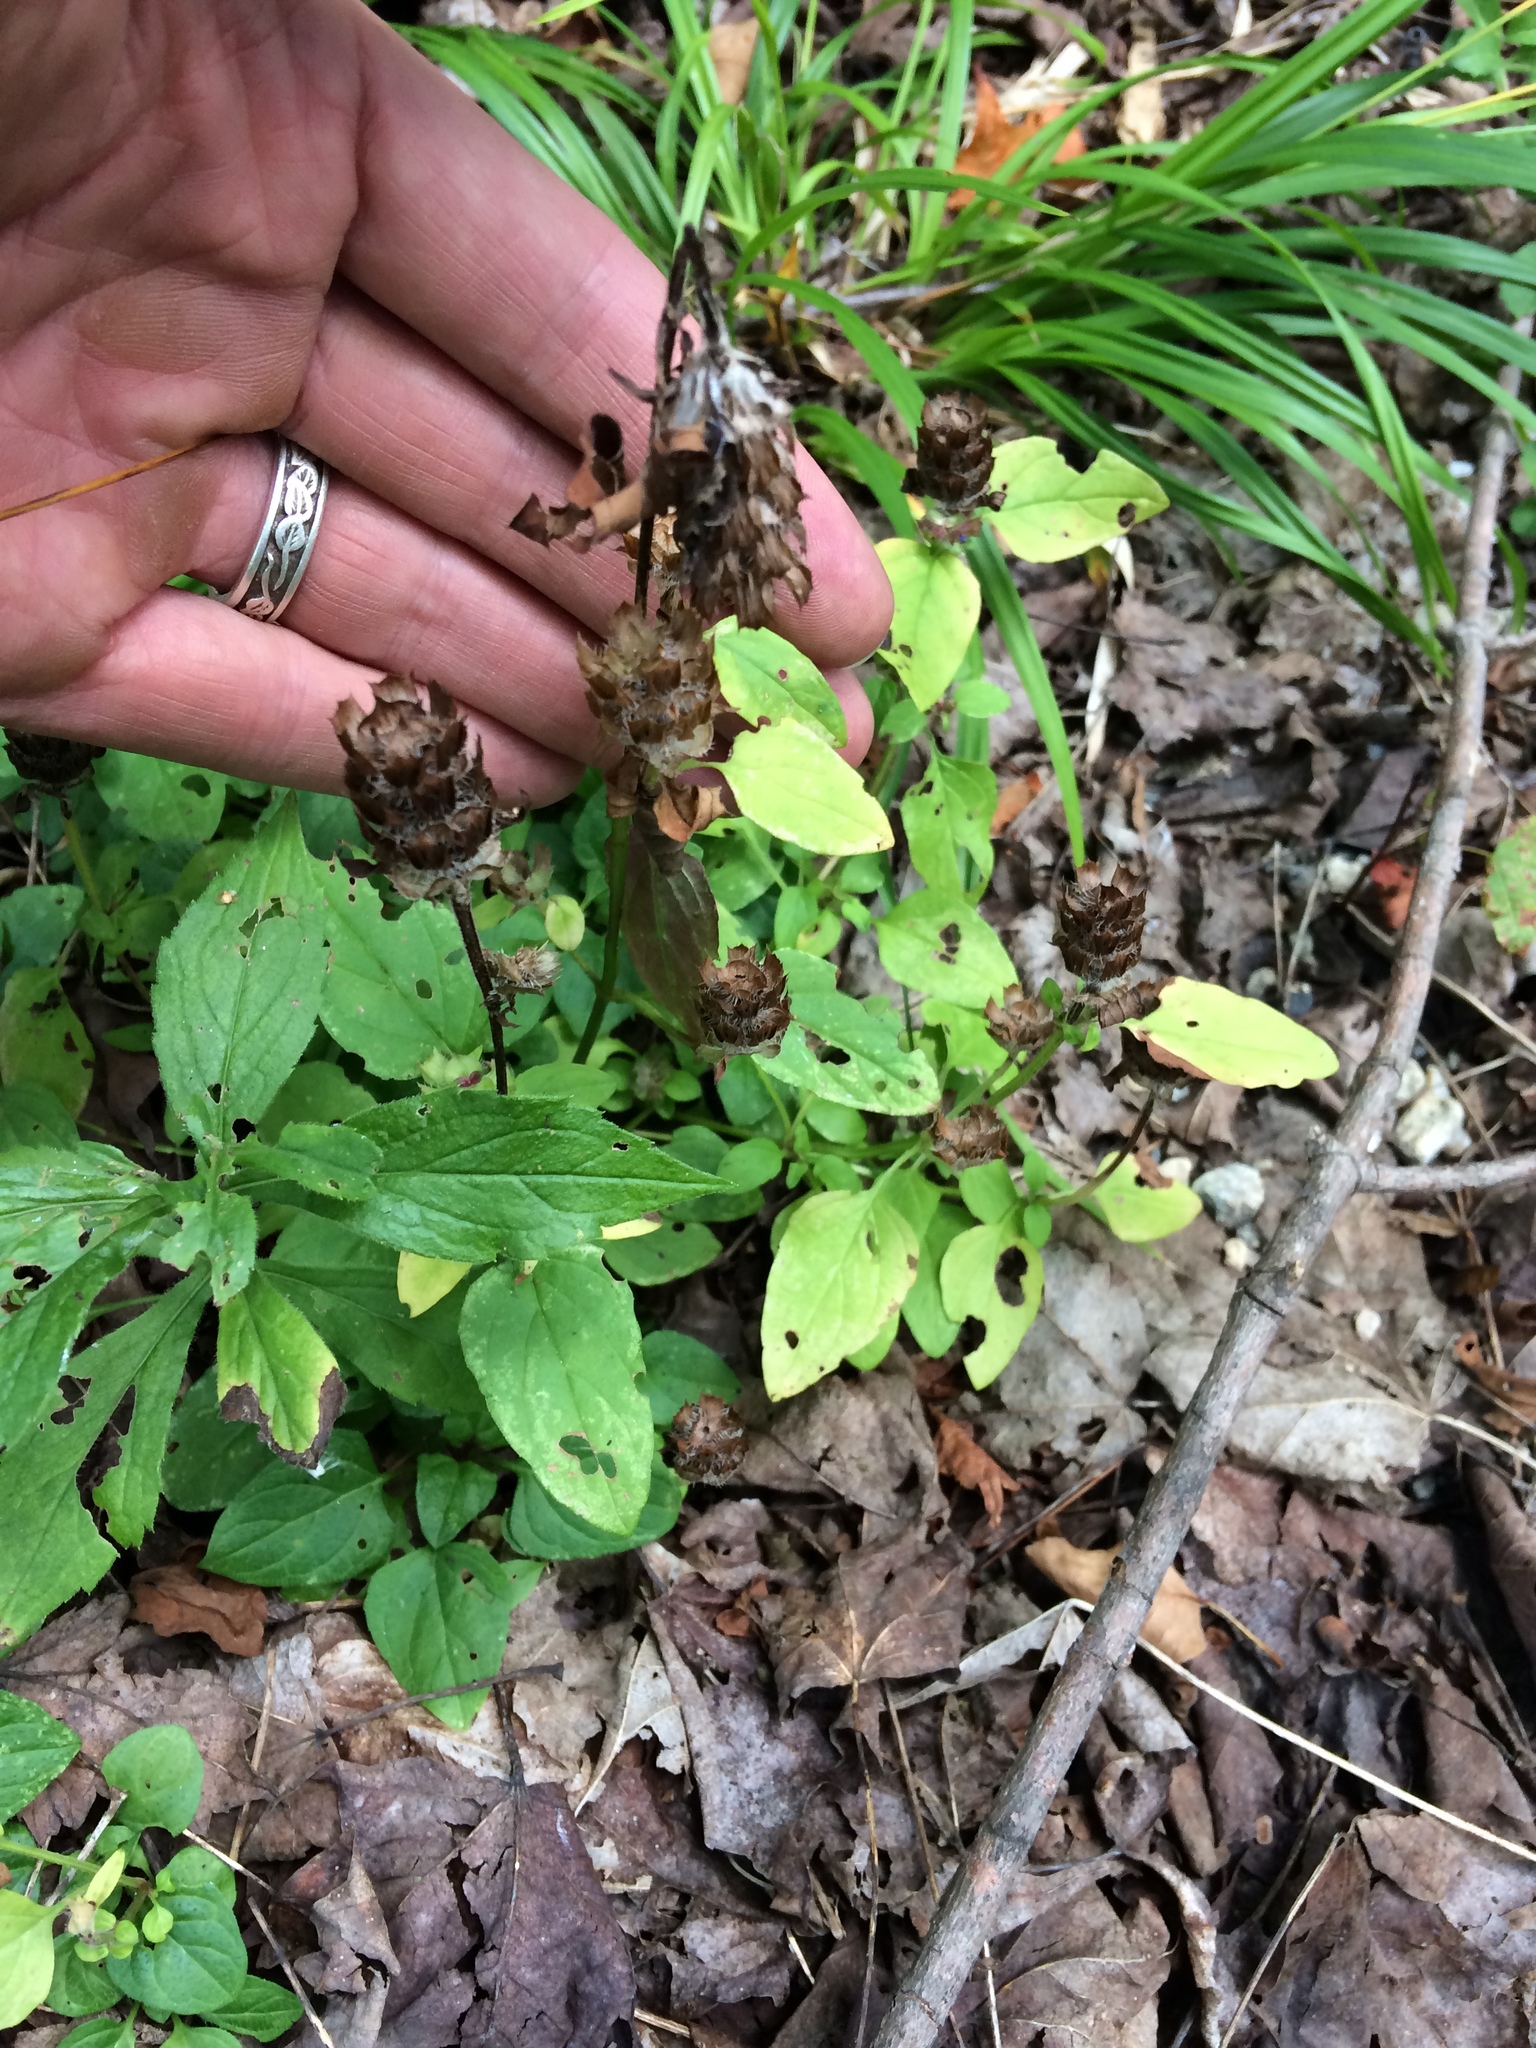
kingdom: Plantae
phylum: Tracheophyta
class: Magnoliopsida
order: Lamiales
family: Lamiaceae
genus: Prunella
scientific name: Prunella vulgaris
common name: Heal-all
